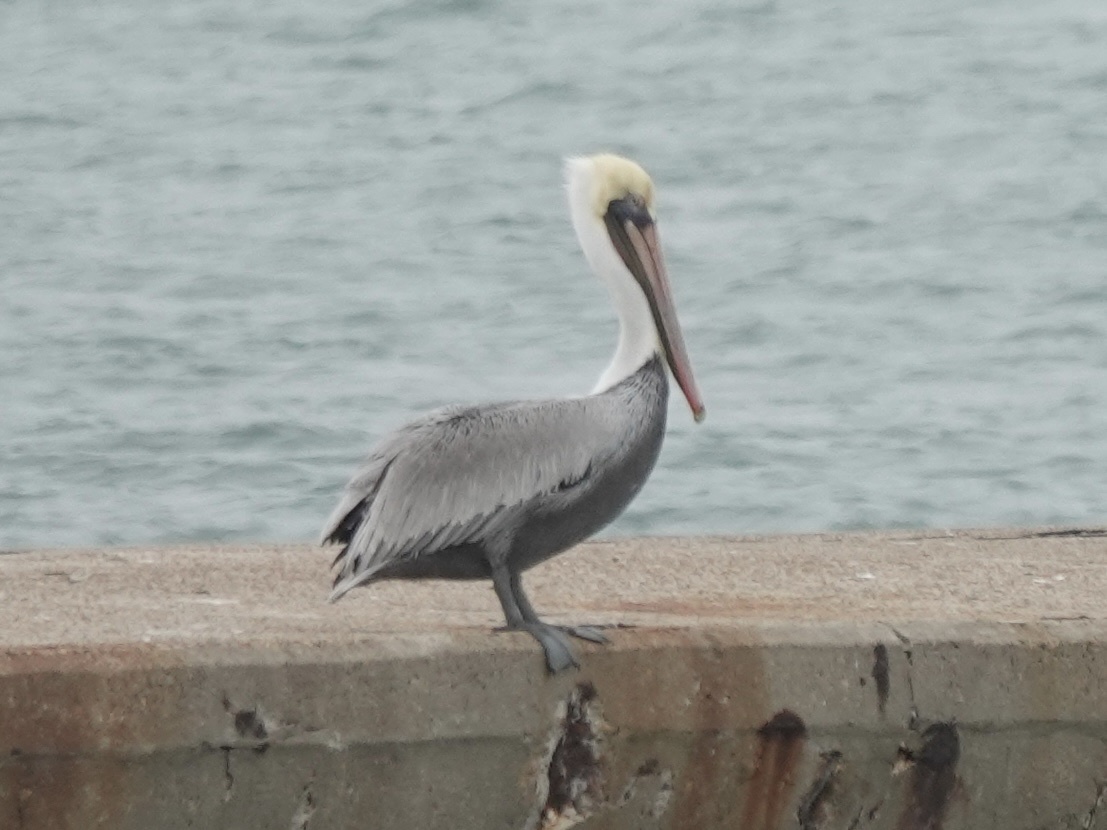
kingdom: Animalia
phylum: Chordata
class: Aves
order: Pelecaniformes
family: Pelecanidae
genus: Pelecanus
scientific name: Pelecanus occidentalis
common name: Brown pelican
